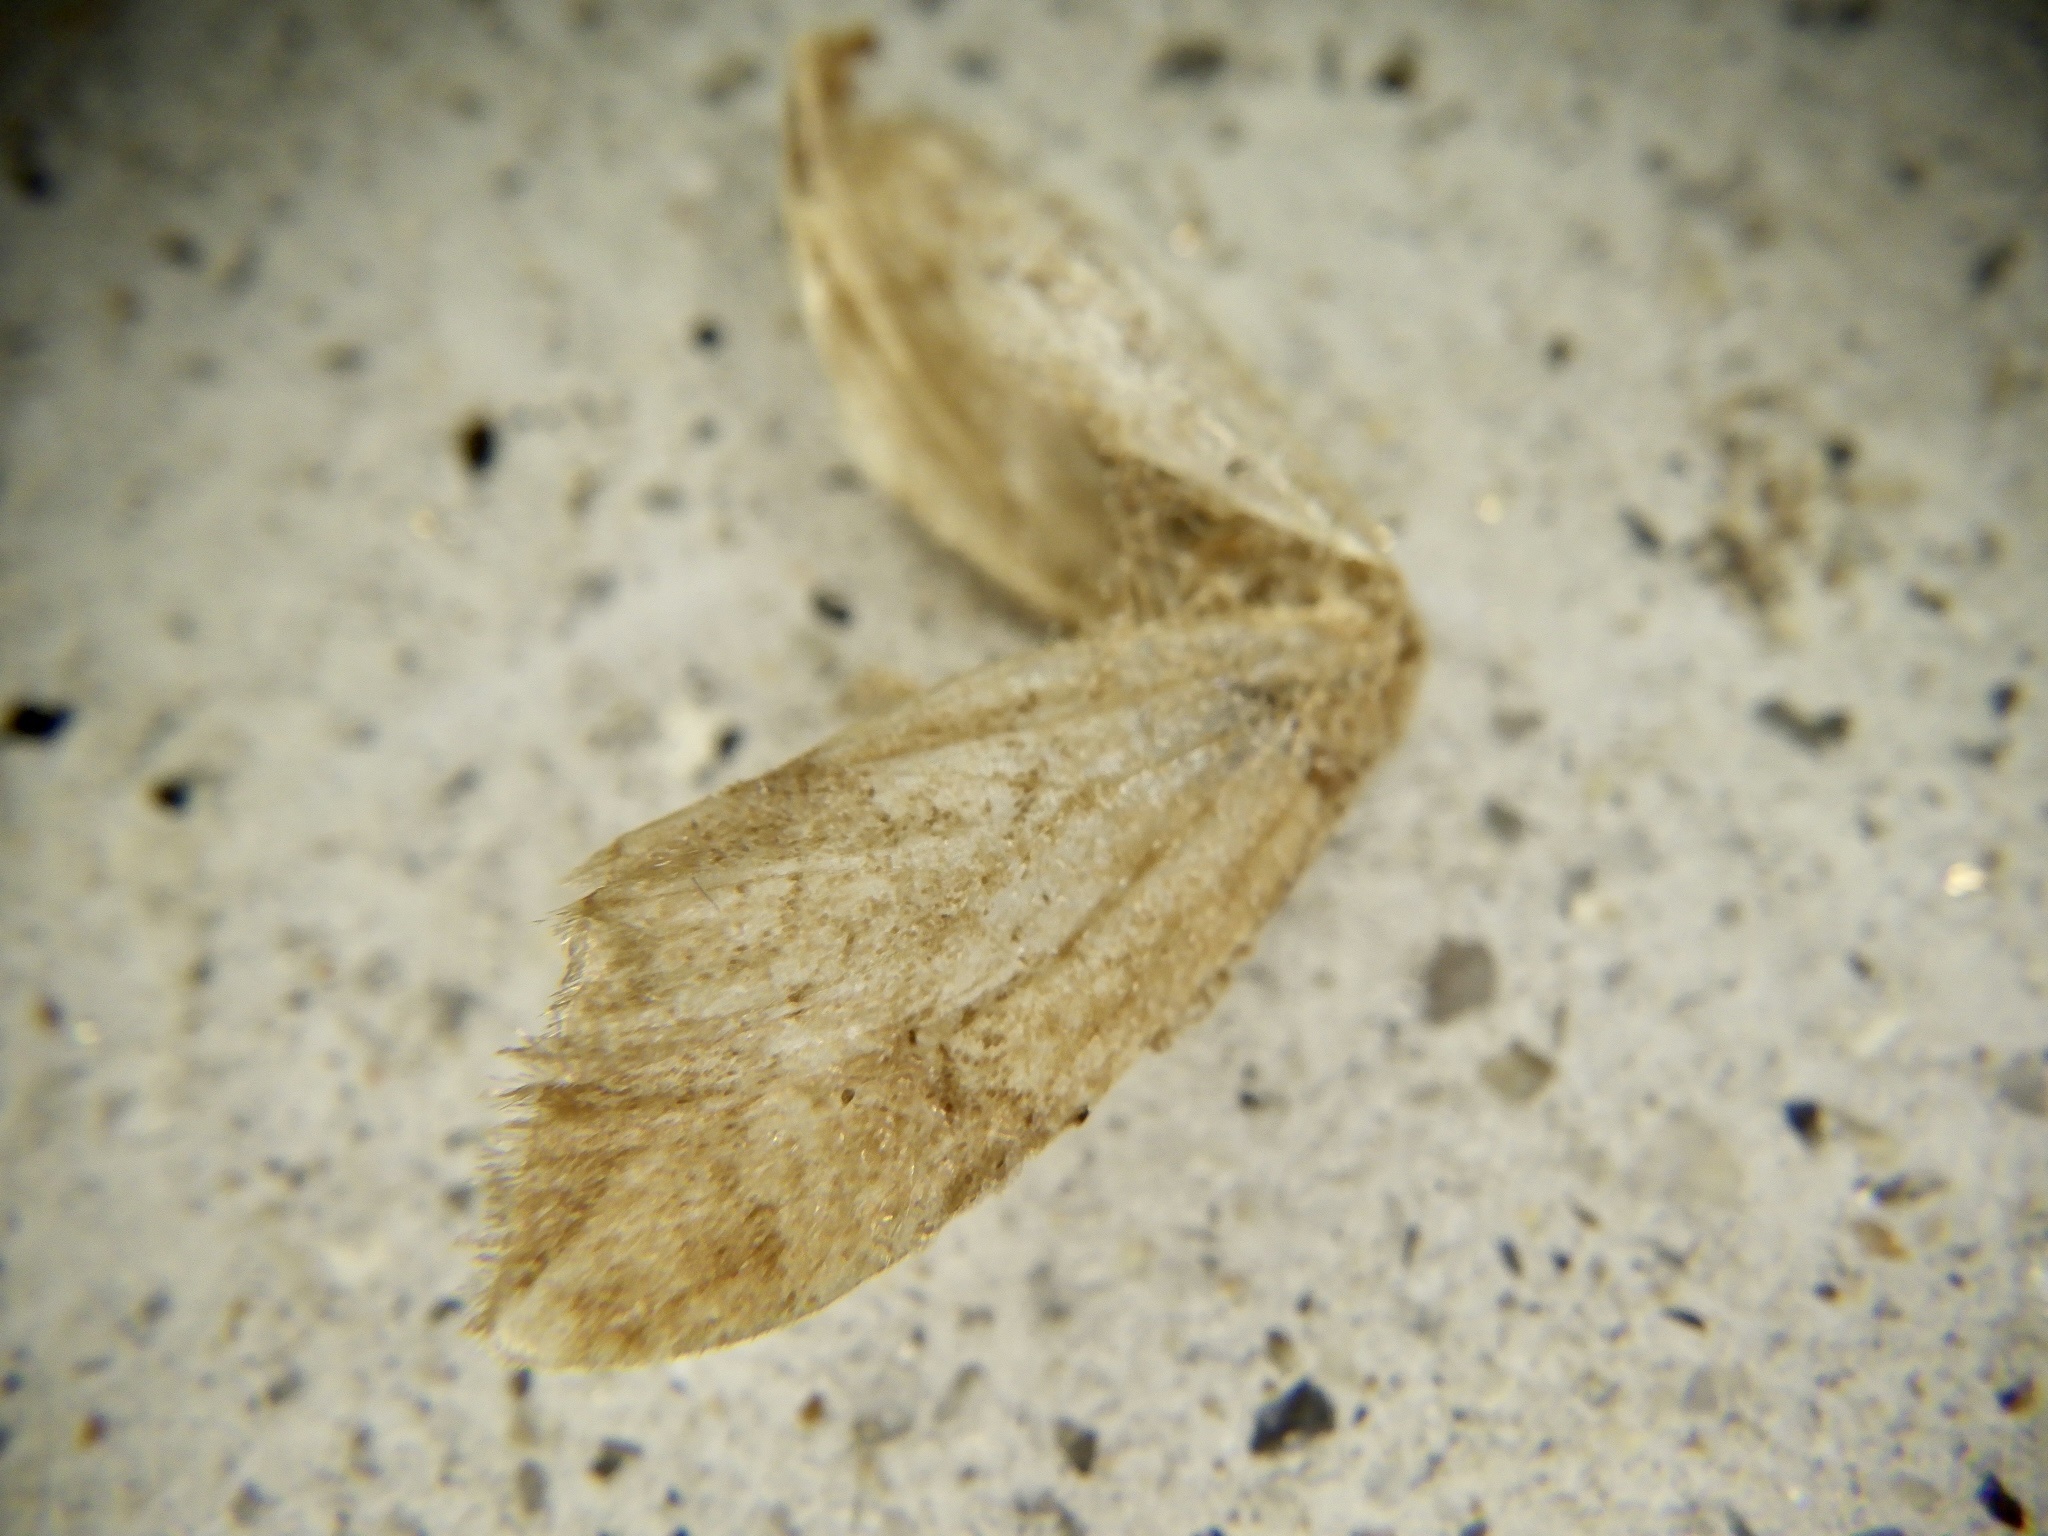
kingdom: Animalia
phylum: Arthropoda
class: Insecta
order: Lepidoptera
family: Geometridae
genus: Nothoporinia
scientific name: Nothoporinia mediolineata
